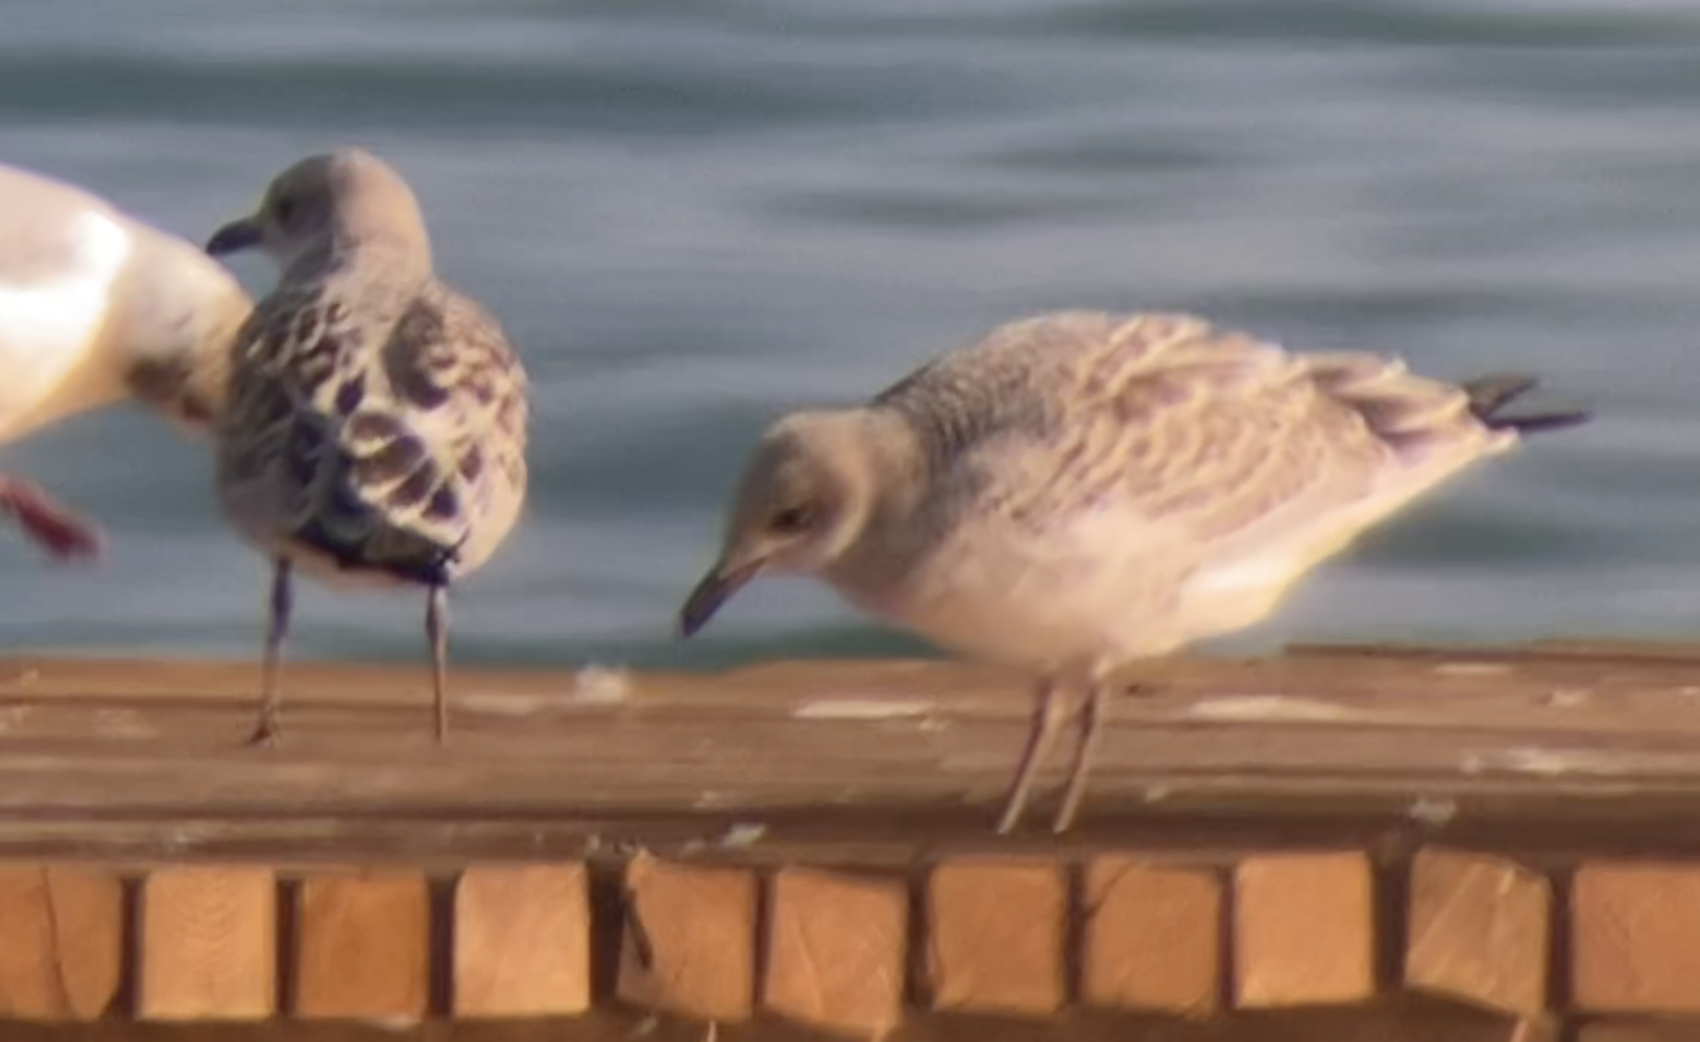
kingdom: Animalia
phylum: Chordata
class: Aves
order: Charadriiformes
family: Laridae
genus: Ichthyaetus
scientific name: Ichthyaetus melanocephalus
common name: Mediterranean gull
